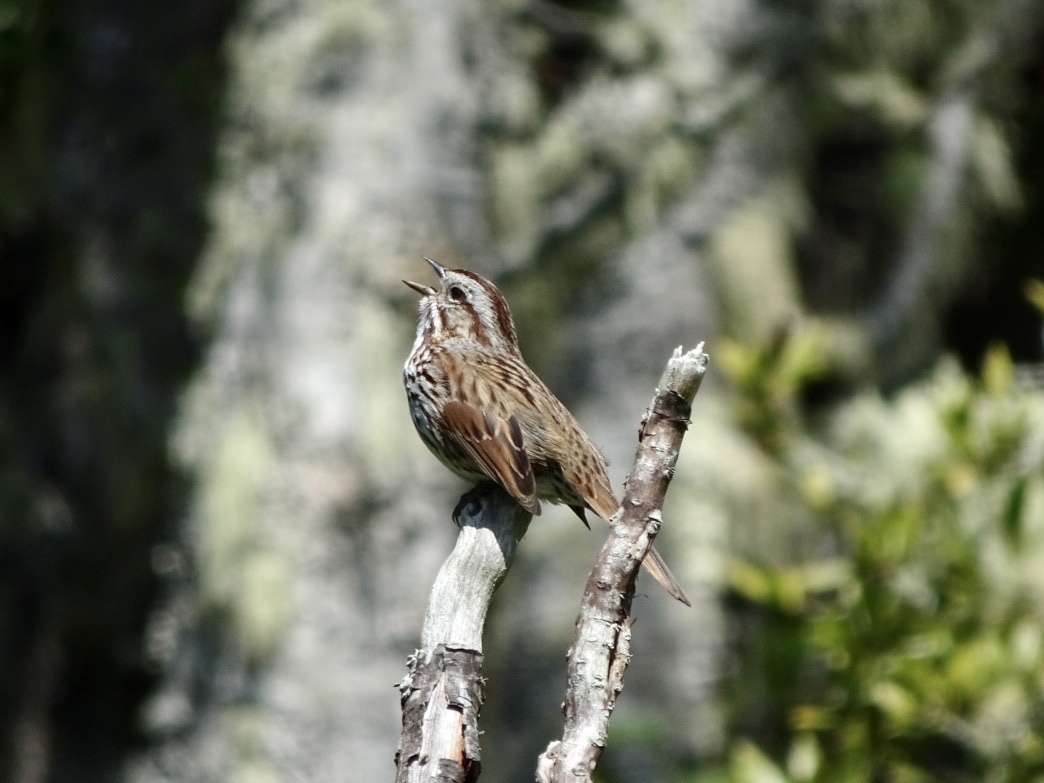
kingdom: Animalia
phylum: Chordata
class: Aves
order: Passeriformes
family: Passerellidae
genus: Melospiza
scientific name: Melospiza melodia
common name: Song sparrow
